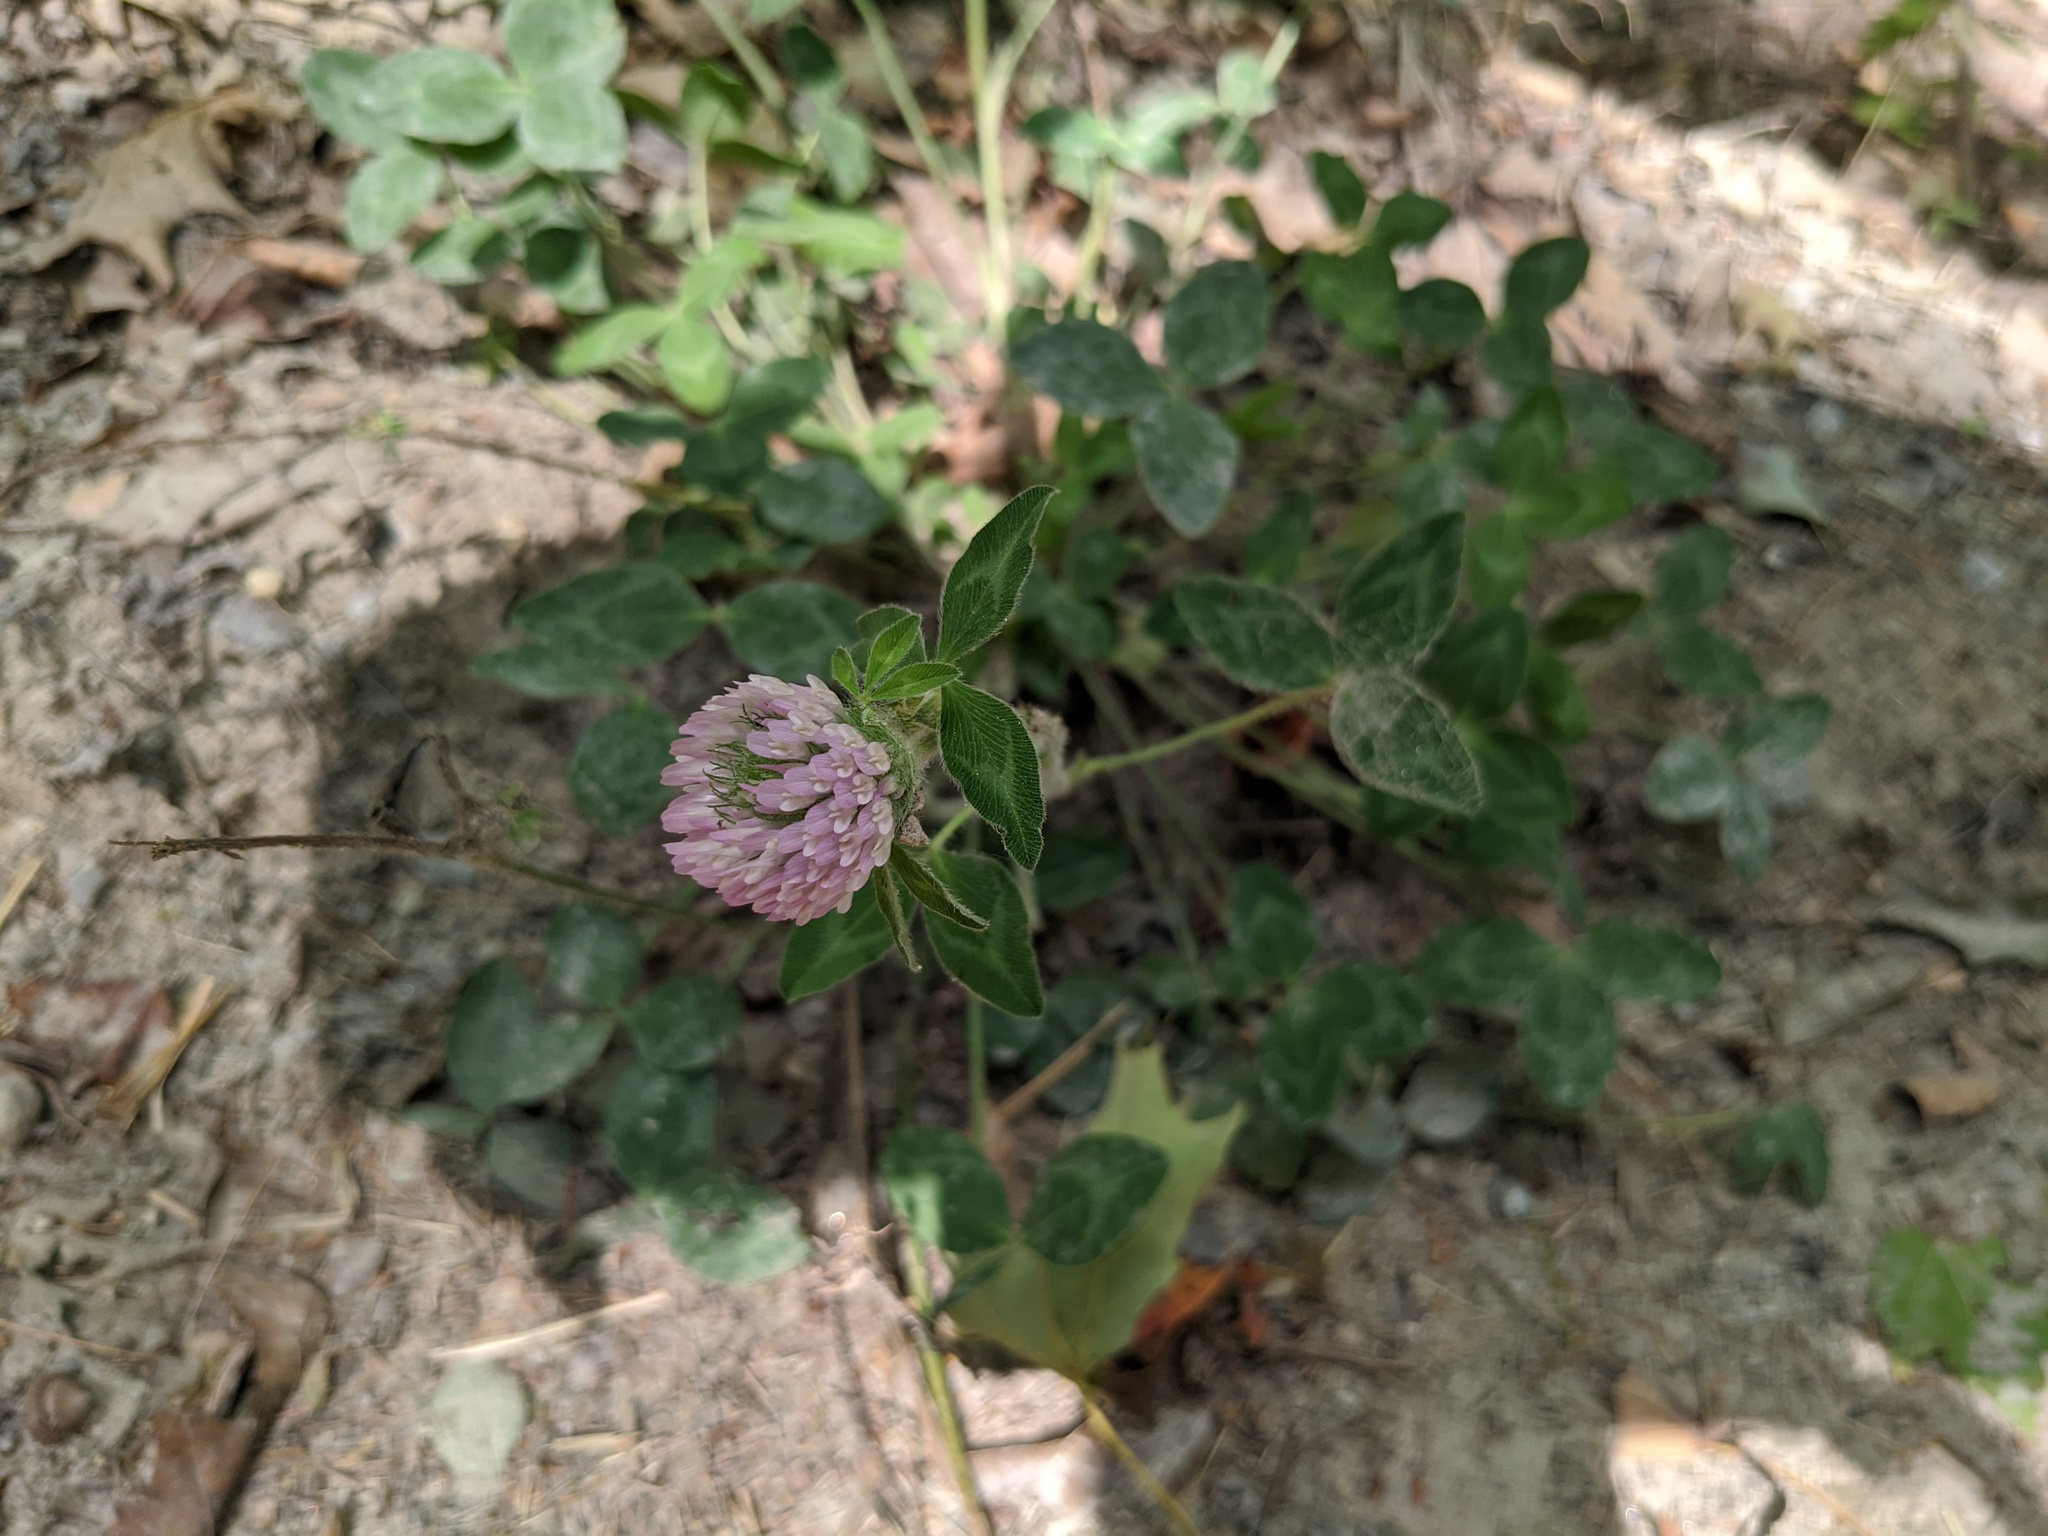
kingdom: Plantae
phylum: Tracheophyta
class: Magnoliopsida
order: Fabales
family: Fabaceae
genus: Trifolium
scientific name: Trifolium pratense
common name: Red clover
